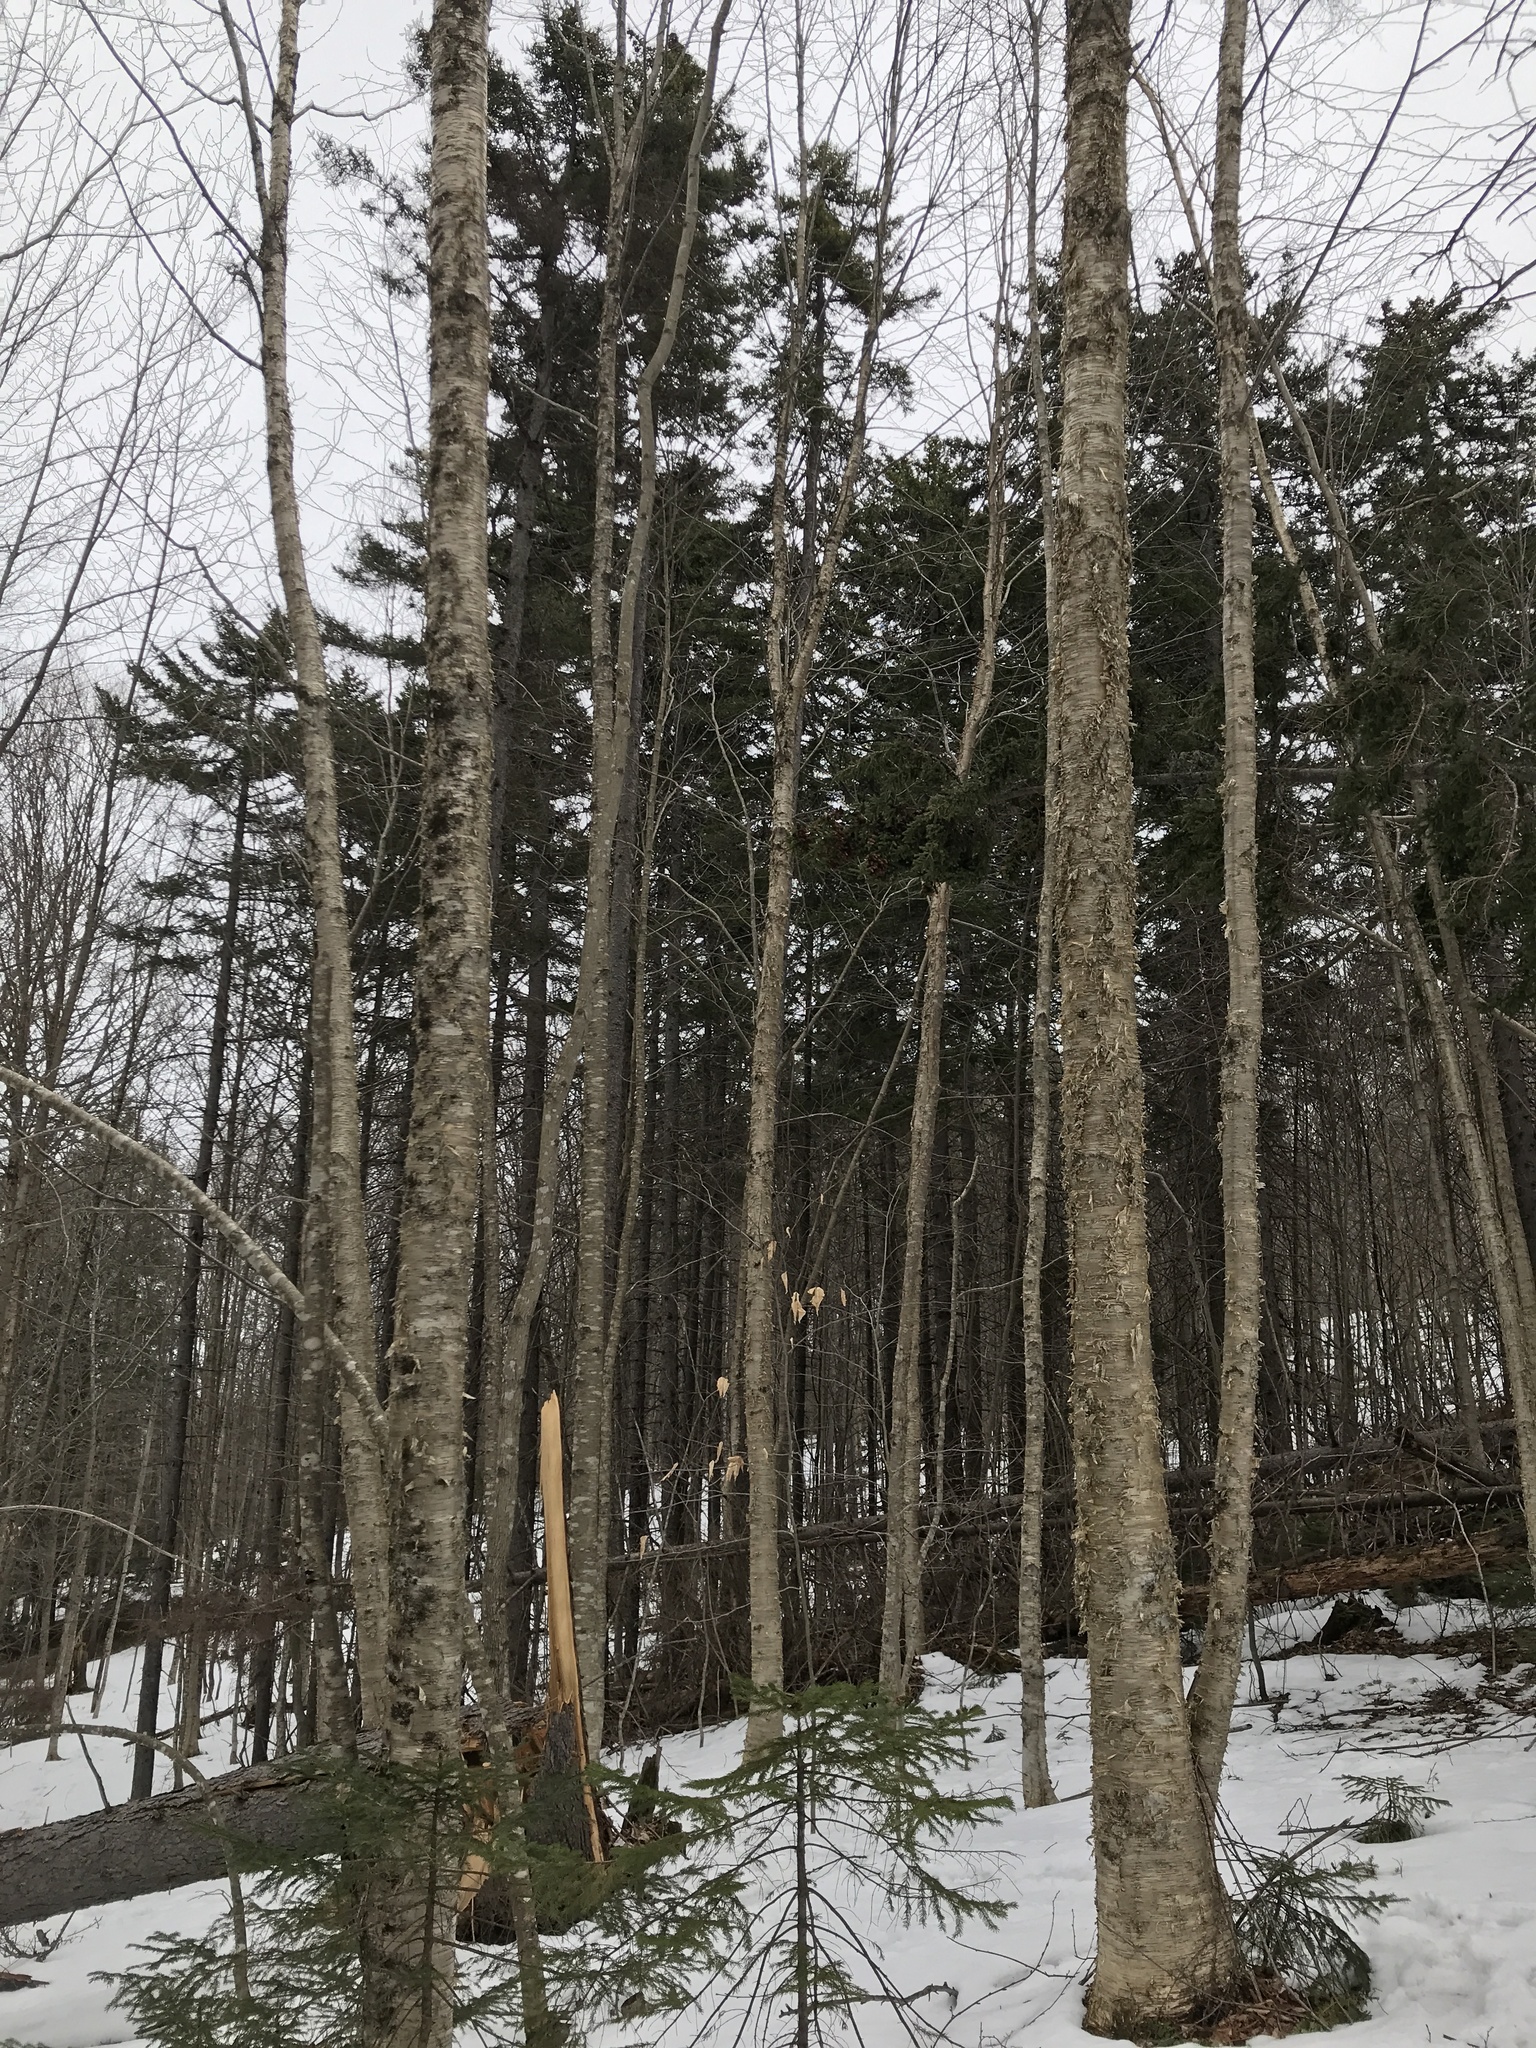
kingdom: Plantae
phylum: Tracheophyta
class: Magnoliopsida
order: Fagales
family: Betulaceae
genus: Betula
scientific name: Betula alleghaniensis
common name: Yellow birch
